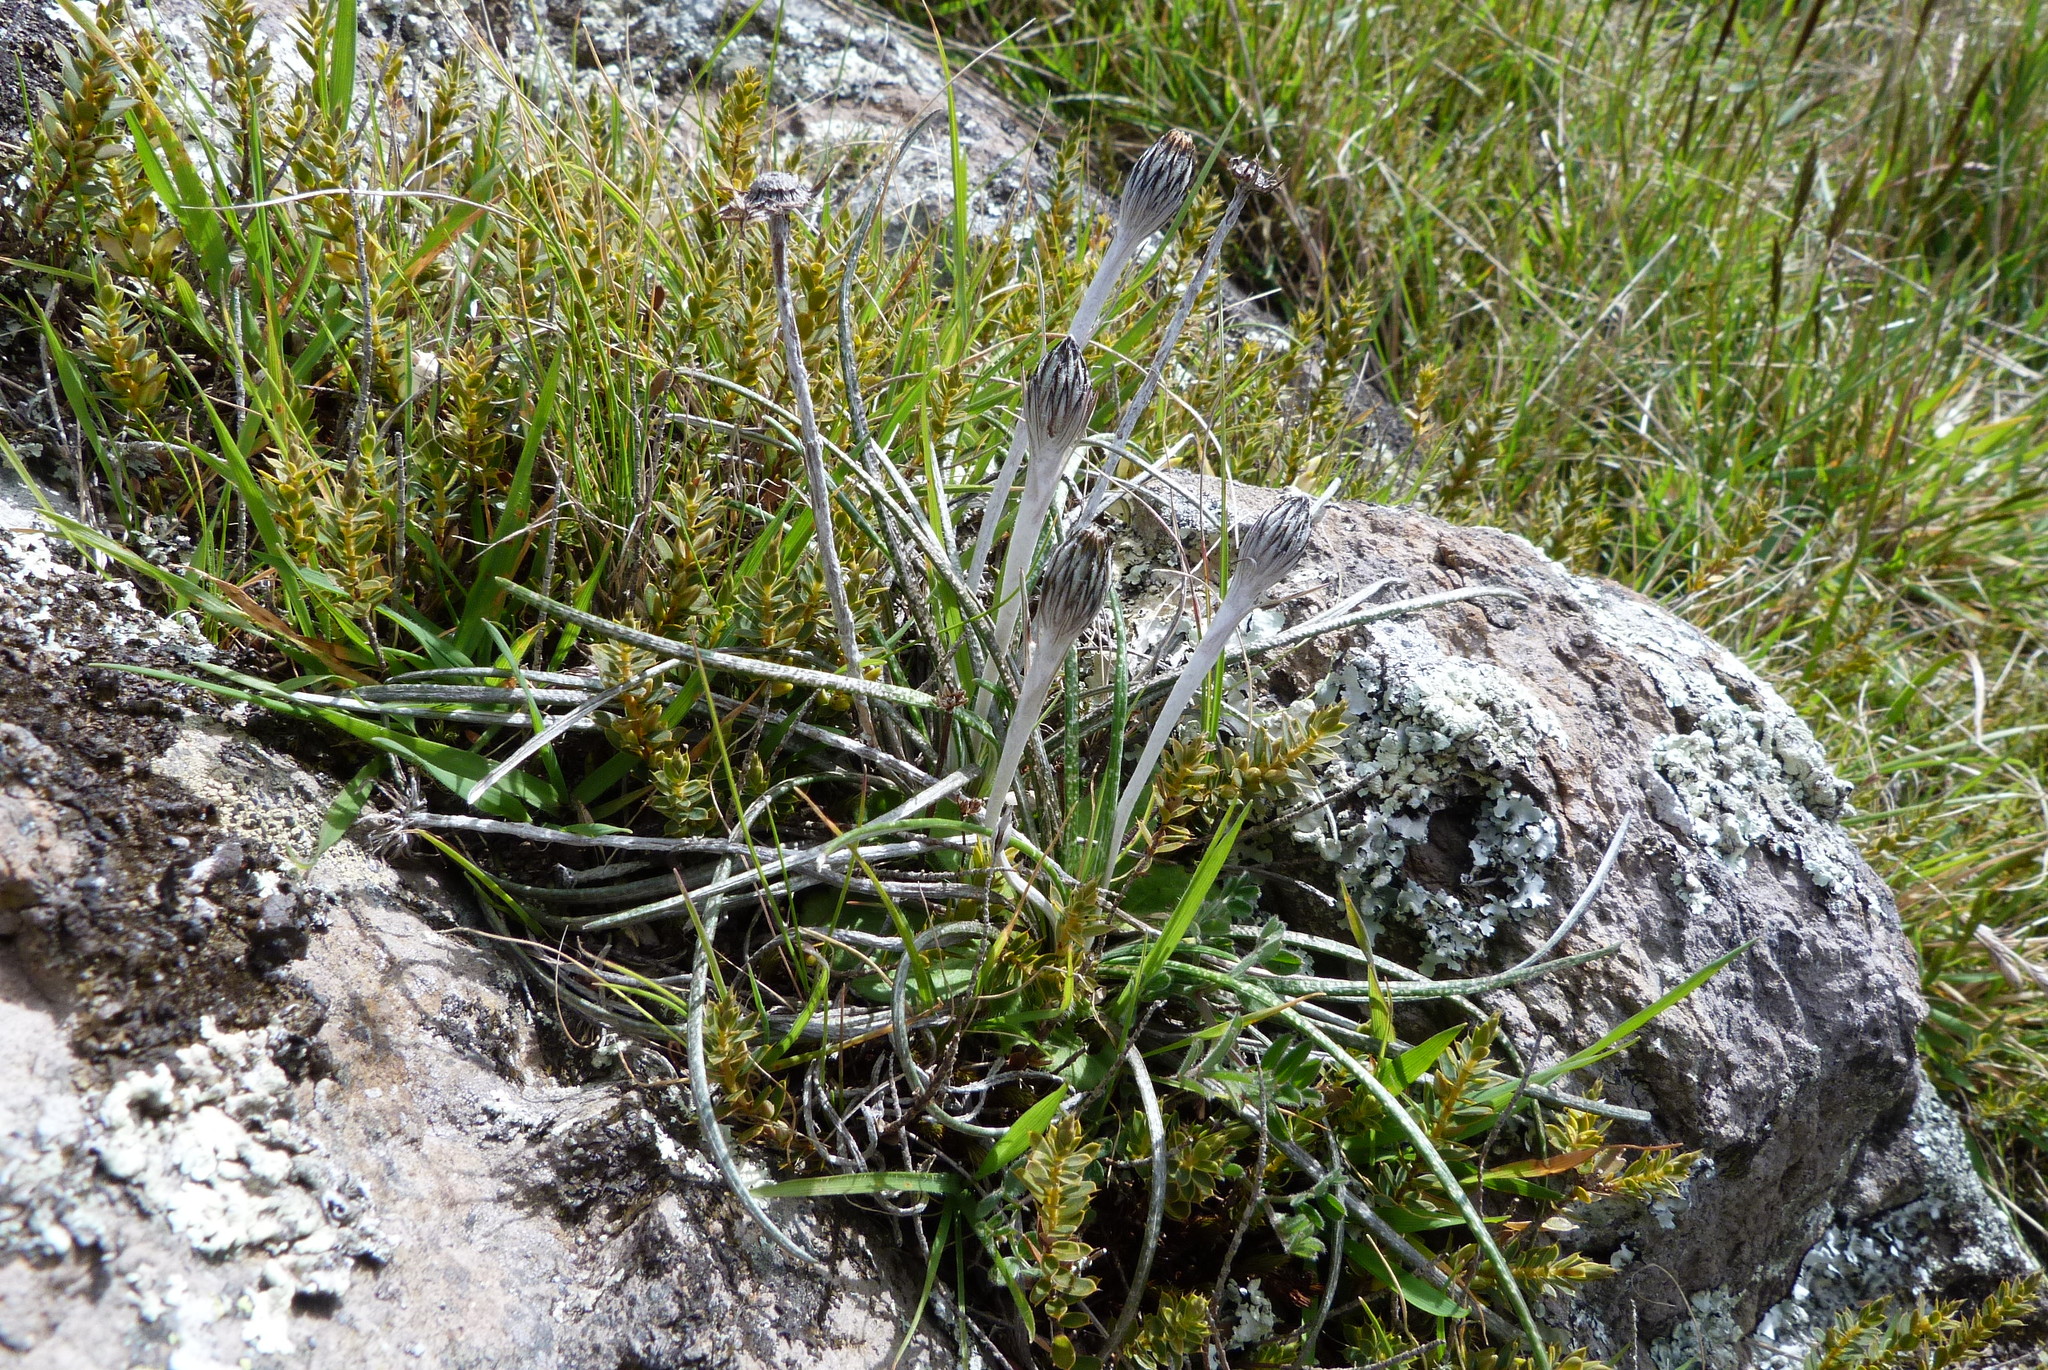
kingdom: Plantae
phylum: Tracheophyta
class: Magnoliopsida
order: Asterales
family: Asteraceae
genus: Celmisia
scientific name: Celmisia gracilenta
